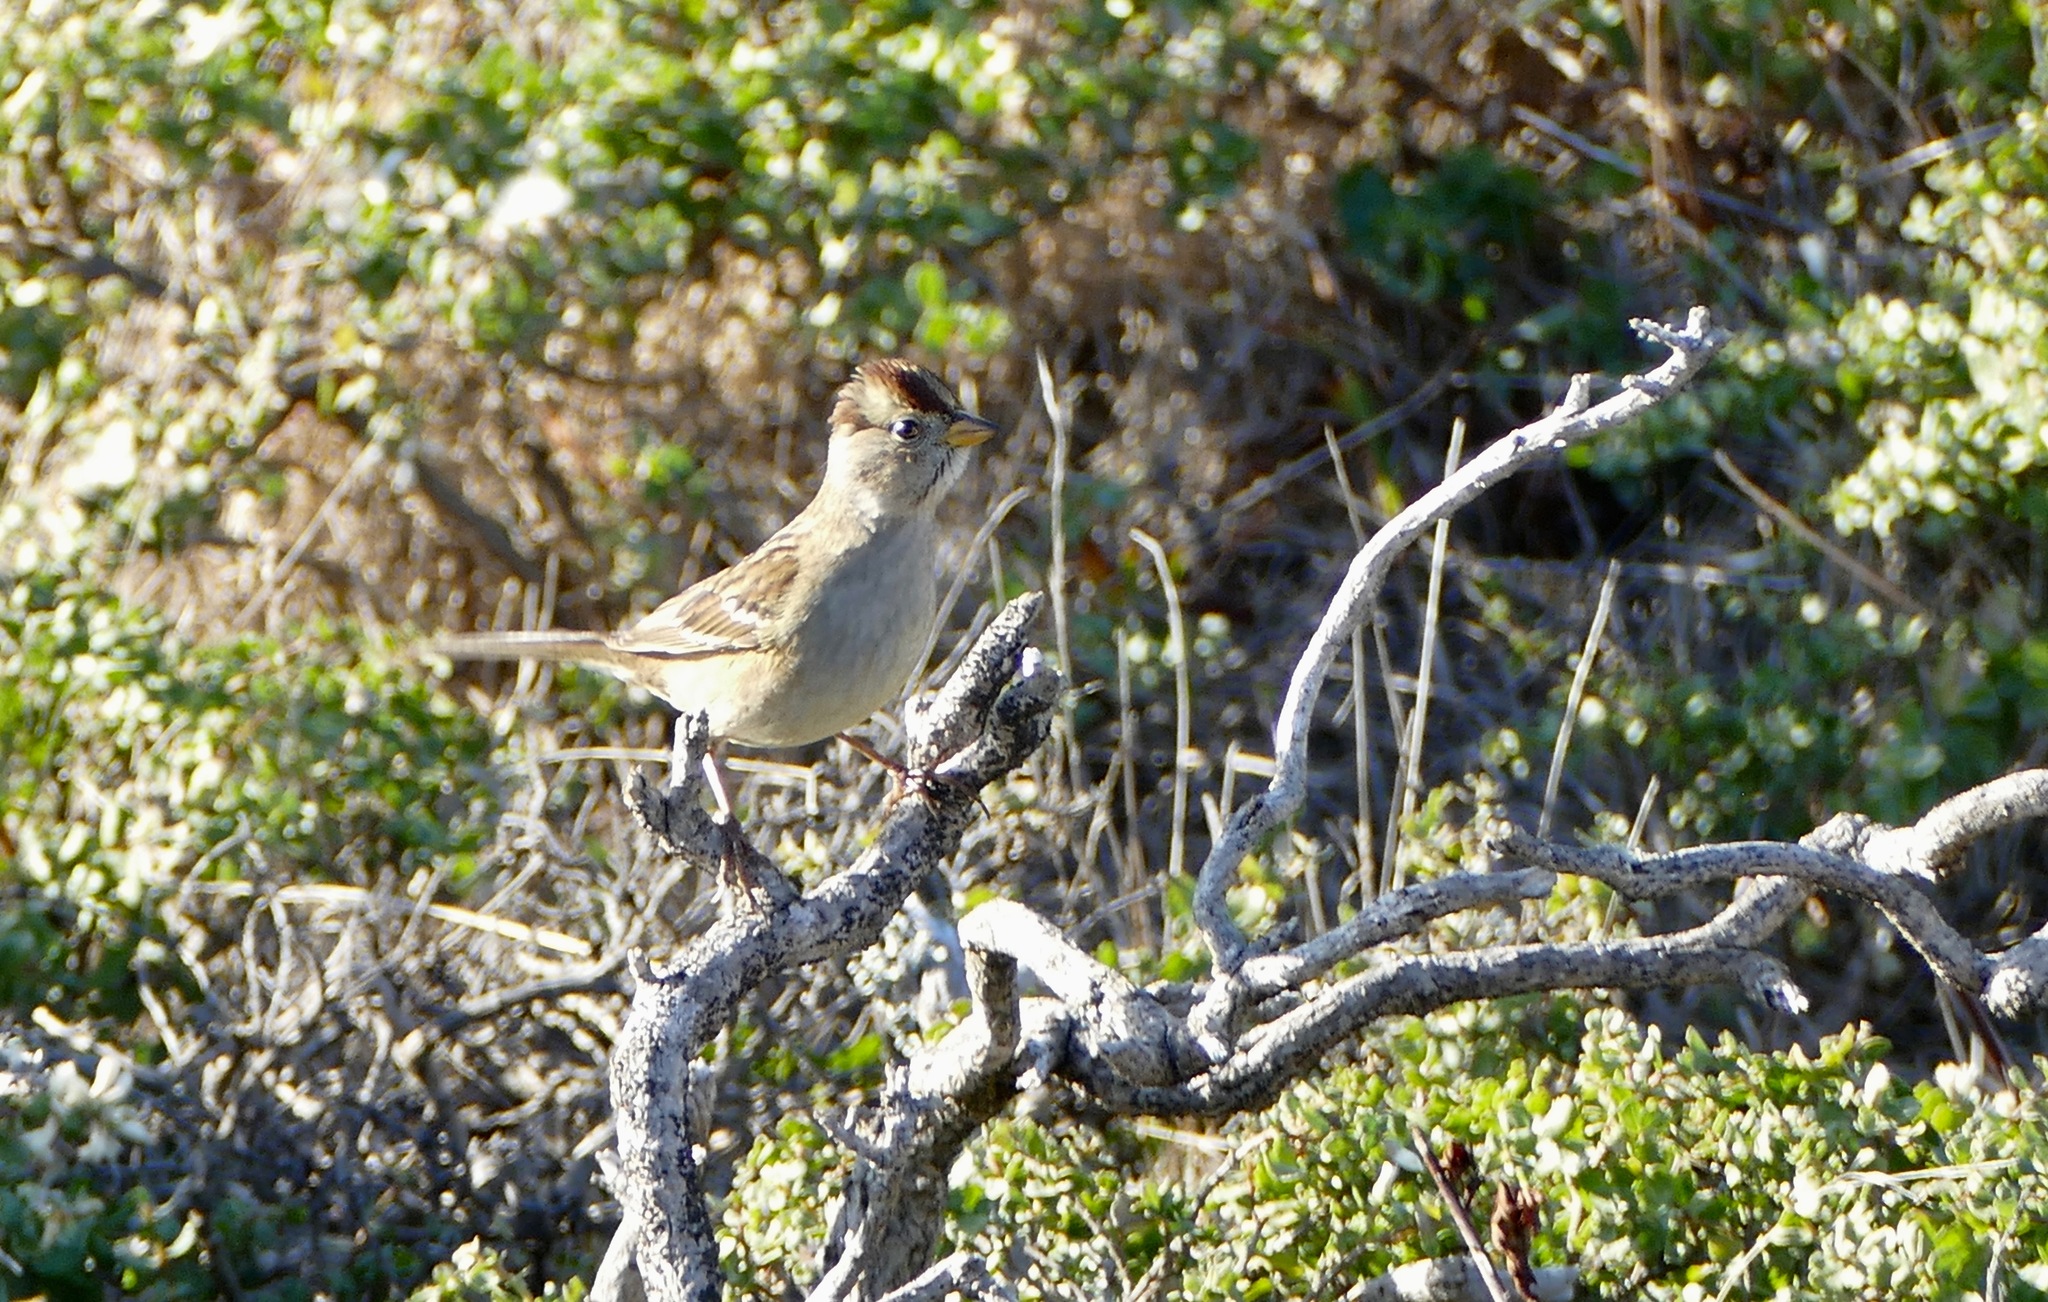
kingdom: Animalia
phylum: Chordata
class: Aves
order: Passeriformes
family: Passerellidae
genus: Zonotrichia
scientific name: Zonotrichia leucophrys
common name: White-crowned sparrow
